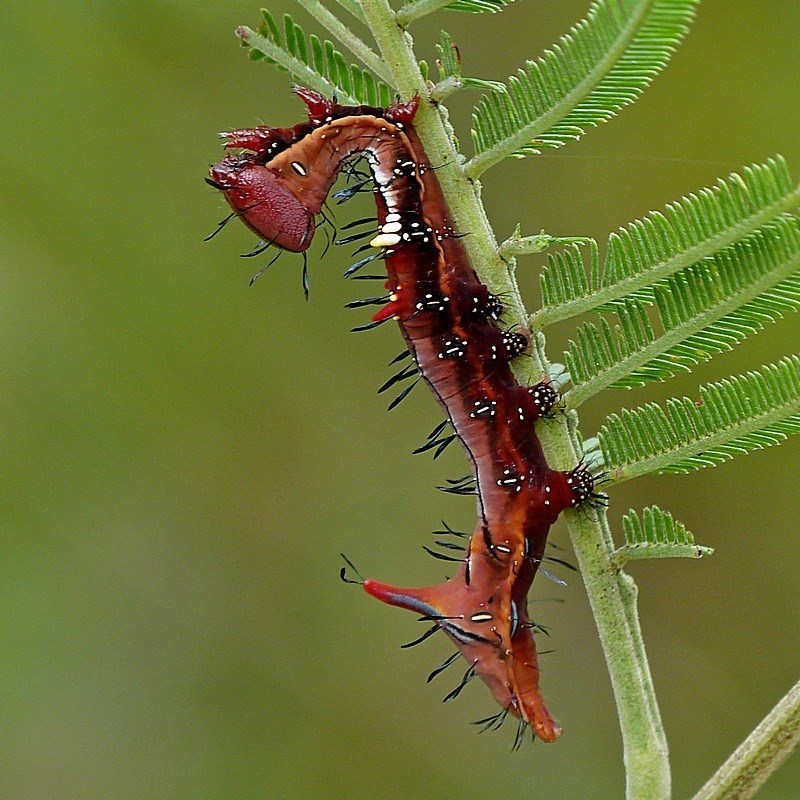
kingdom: Animalia
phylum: Arthropoda
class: Insecta
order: Lepidoptera
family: Notodontidae
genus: Neola
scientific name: Neola semiaurata
